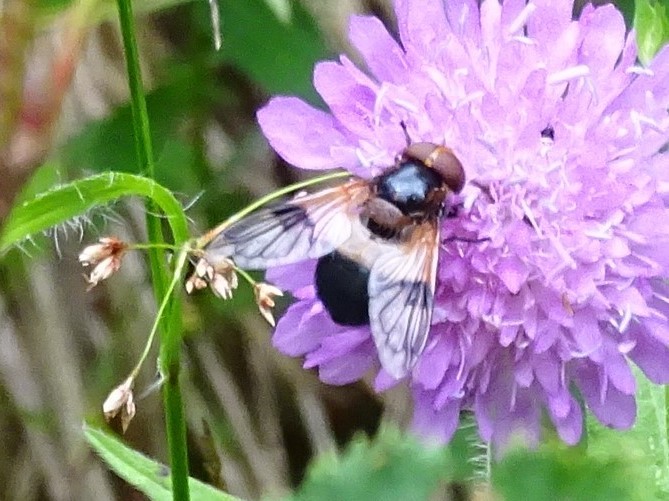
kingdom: Animalia
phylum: Arthropoda
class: Insecta
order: Diptera
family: Syrphidae
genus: Volucella
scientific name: Volucella pellucens
